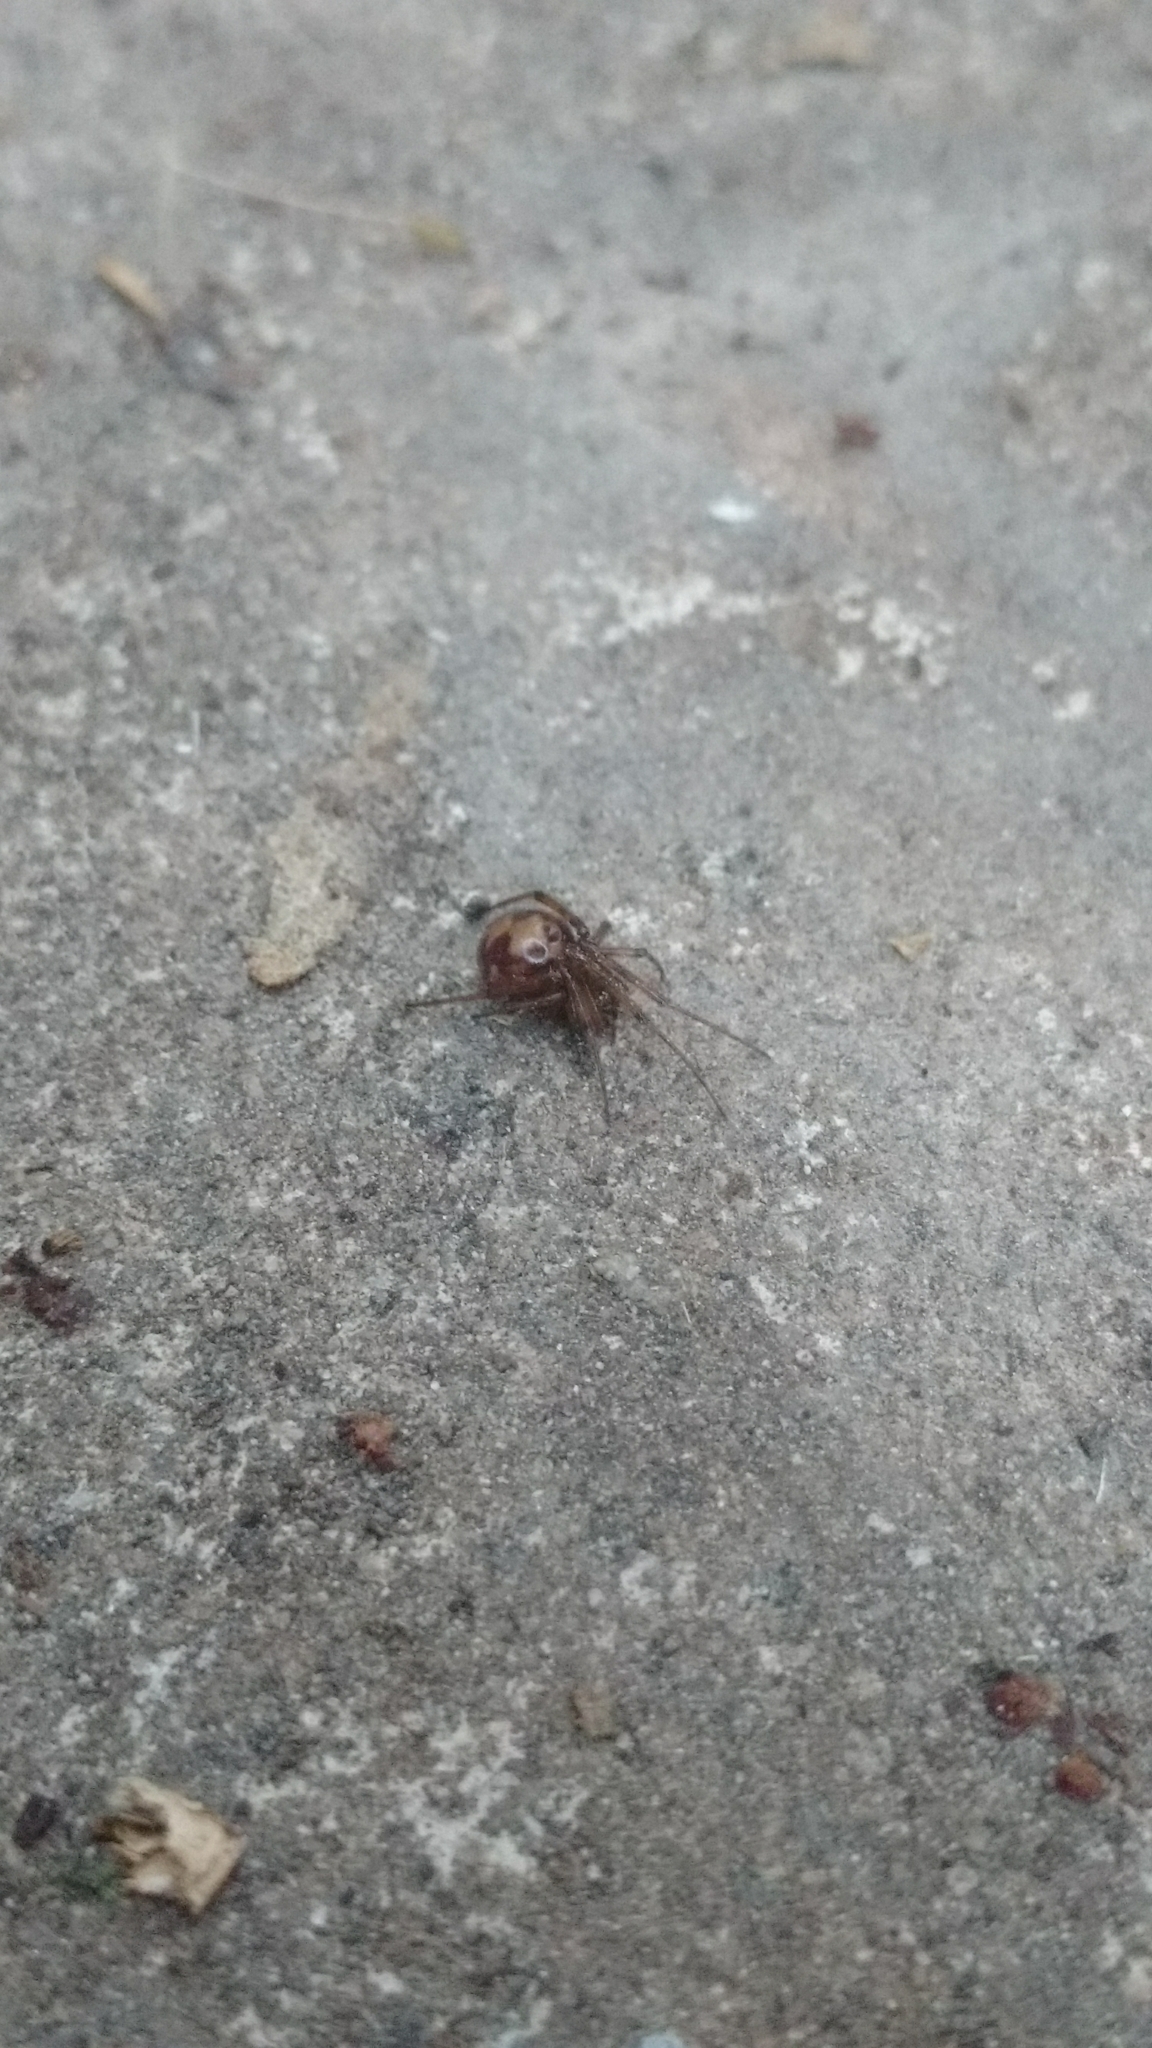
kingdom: Animalia
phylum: Arthropoda
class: Arachnida
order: Araneae
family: Theridiidae
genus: Steatoda
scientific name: Steatoda triangulosa
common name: Triangulate bud spider
